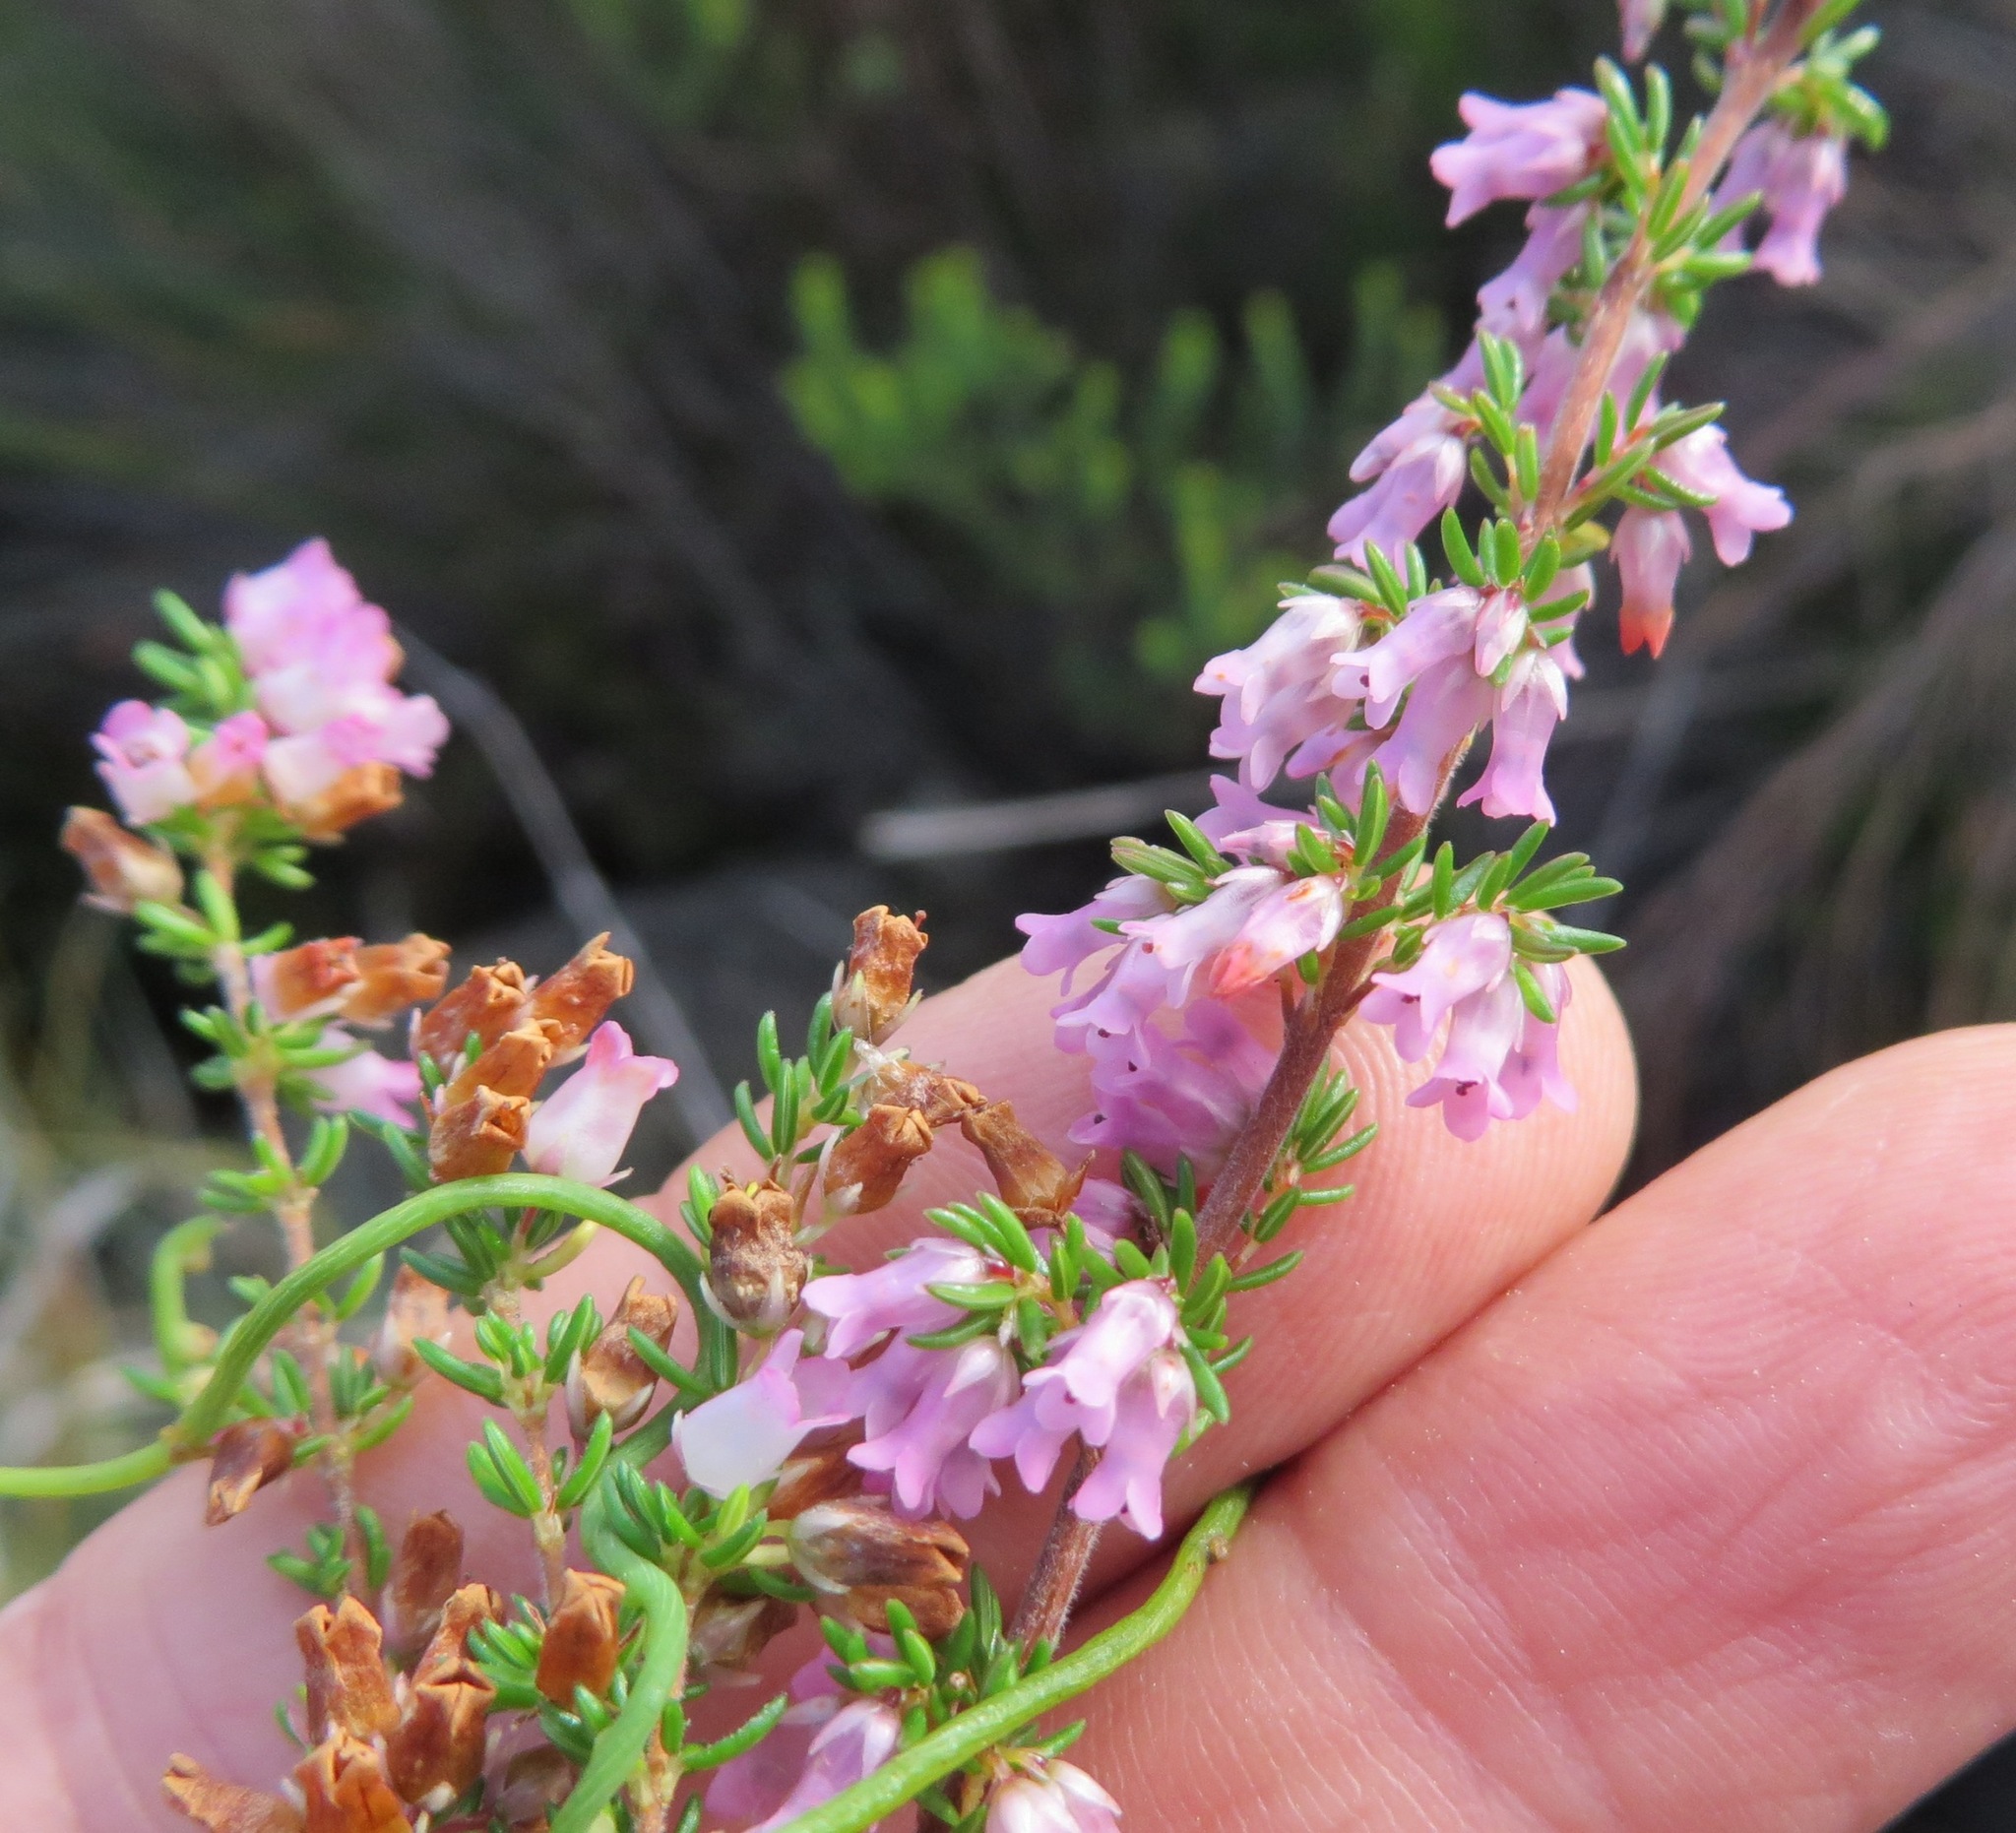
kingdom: Plantae
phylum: Tracheophyta
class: Magnoliopsida
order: Ericales
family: Ericaceae
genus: Erica
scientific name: Erica intervallaris
